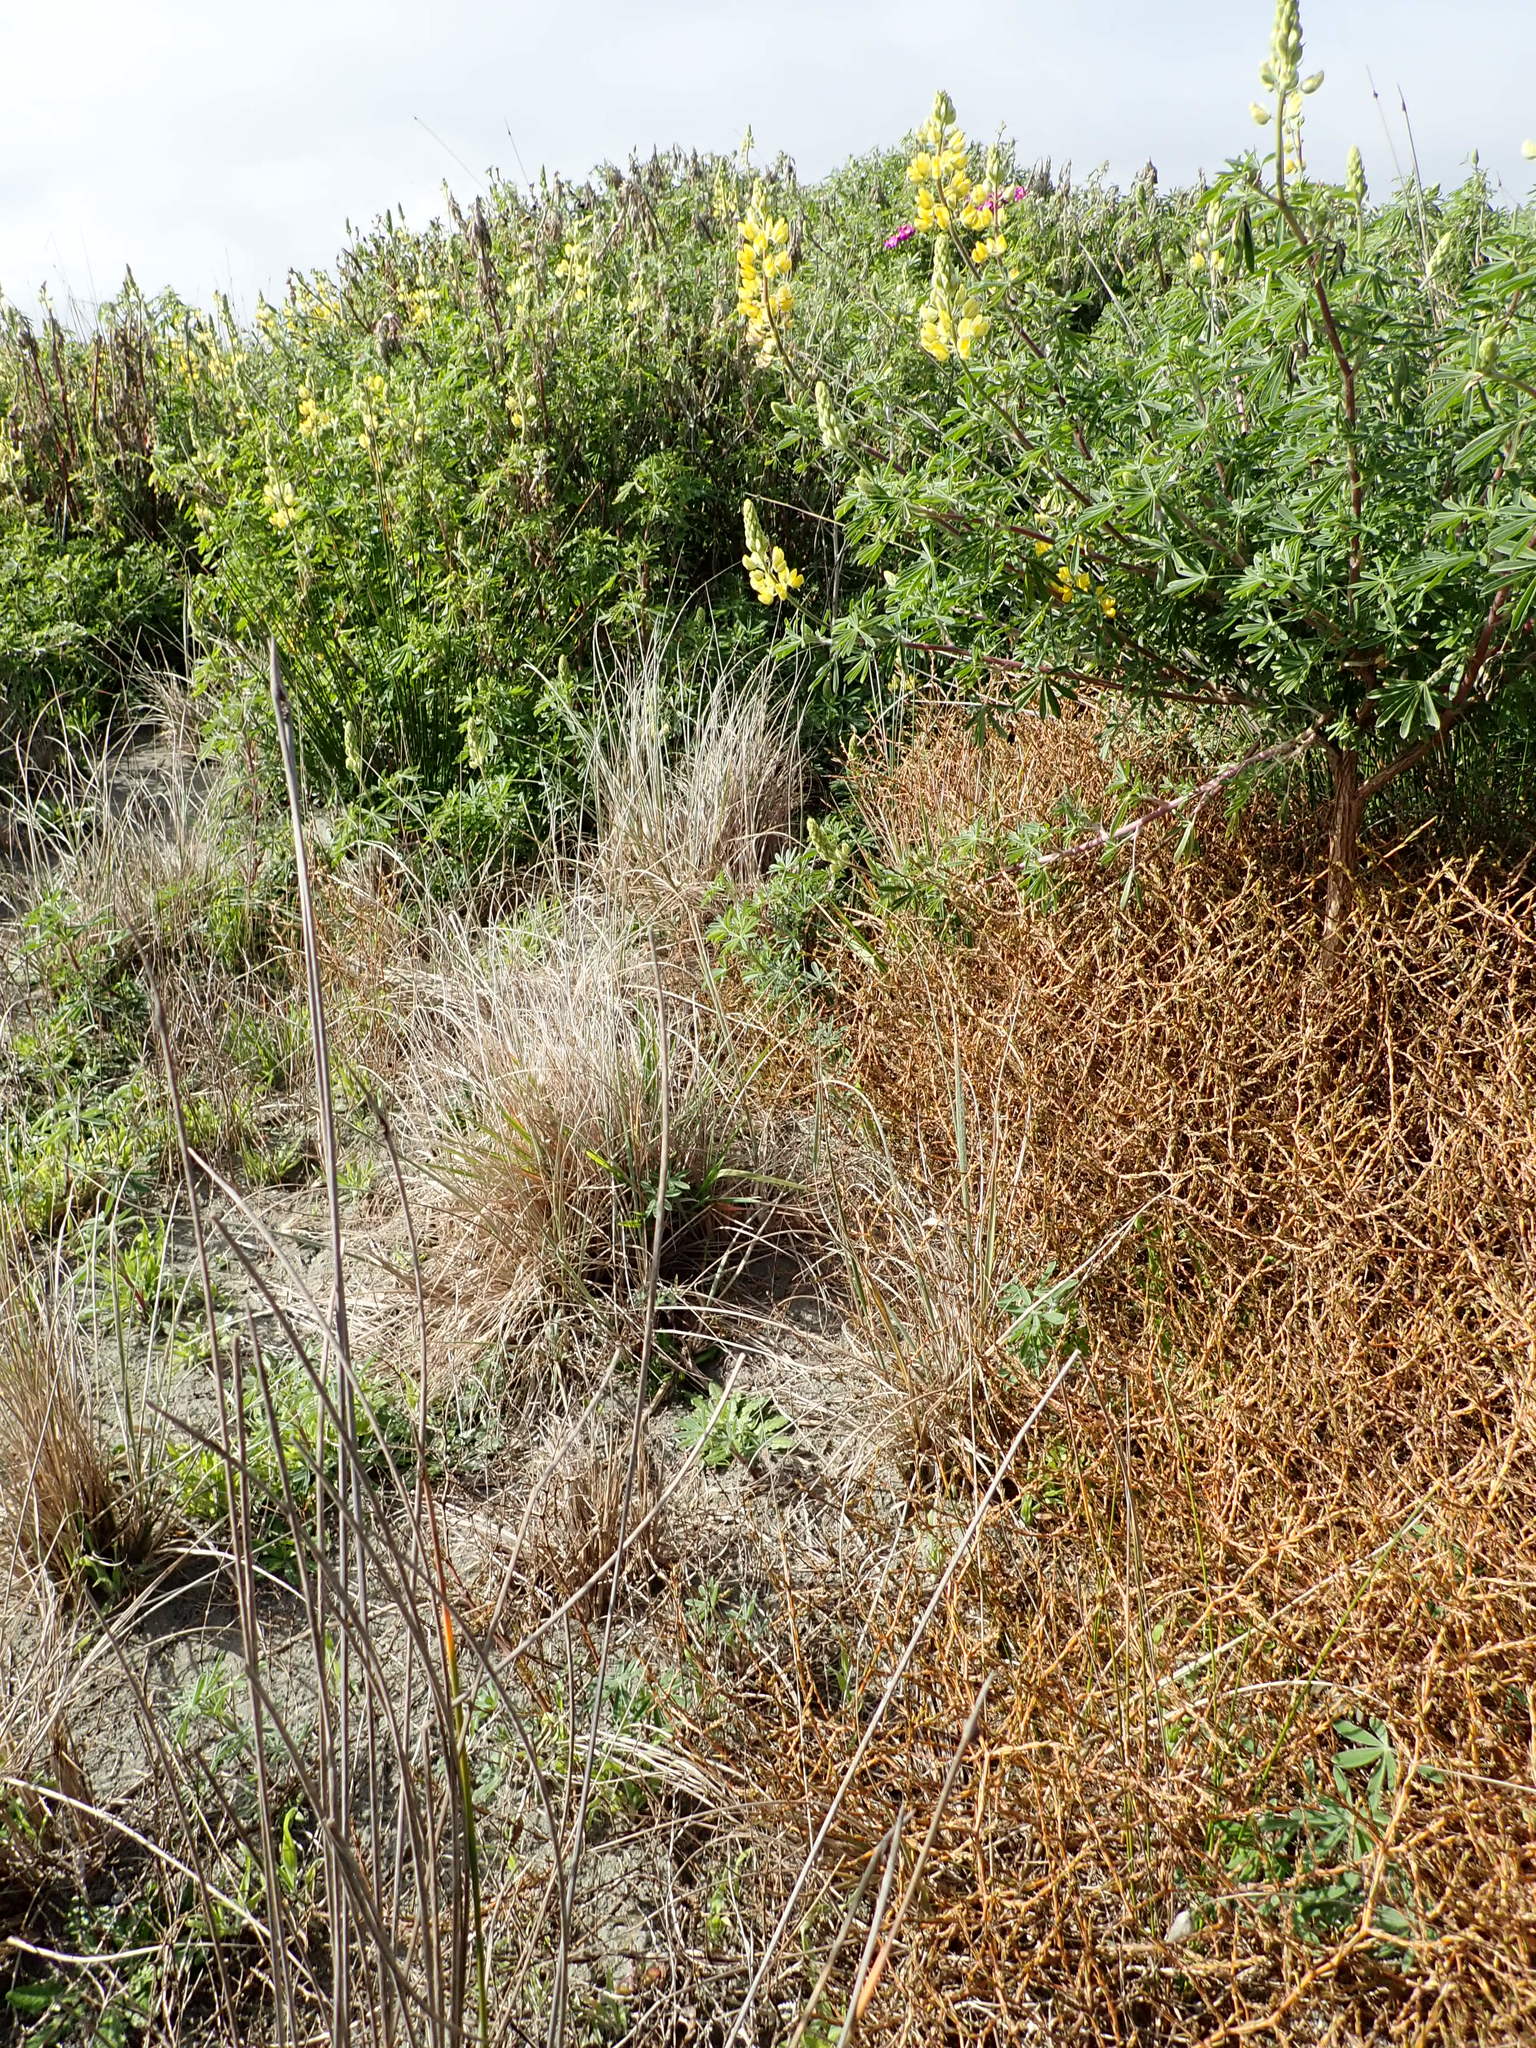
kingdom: Plantae
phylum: Tracheophyta
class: Magnoliopsida
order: Gentianales
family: Rubiaceae
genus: Coprosma
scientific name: Coprosma acerosa
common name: Sand coprosma
